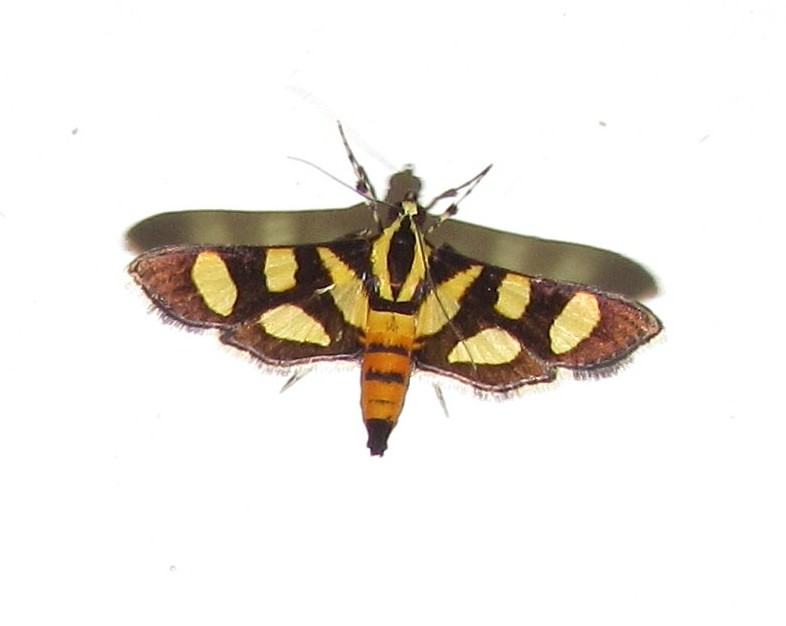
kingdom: Animalia
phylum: Arthropoda
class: Insecta
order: Lepidoptera
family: Crambidae
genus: Syngamia
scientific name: Syngamia florella
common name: Orange-spotted flower moth
